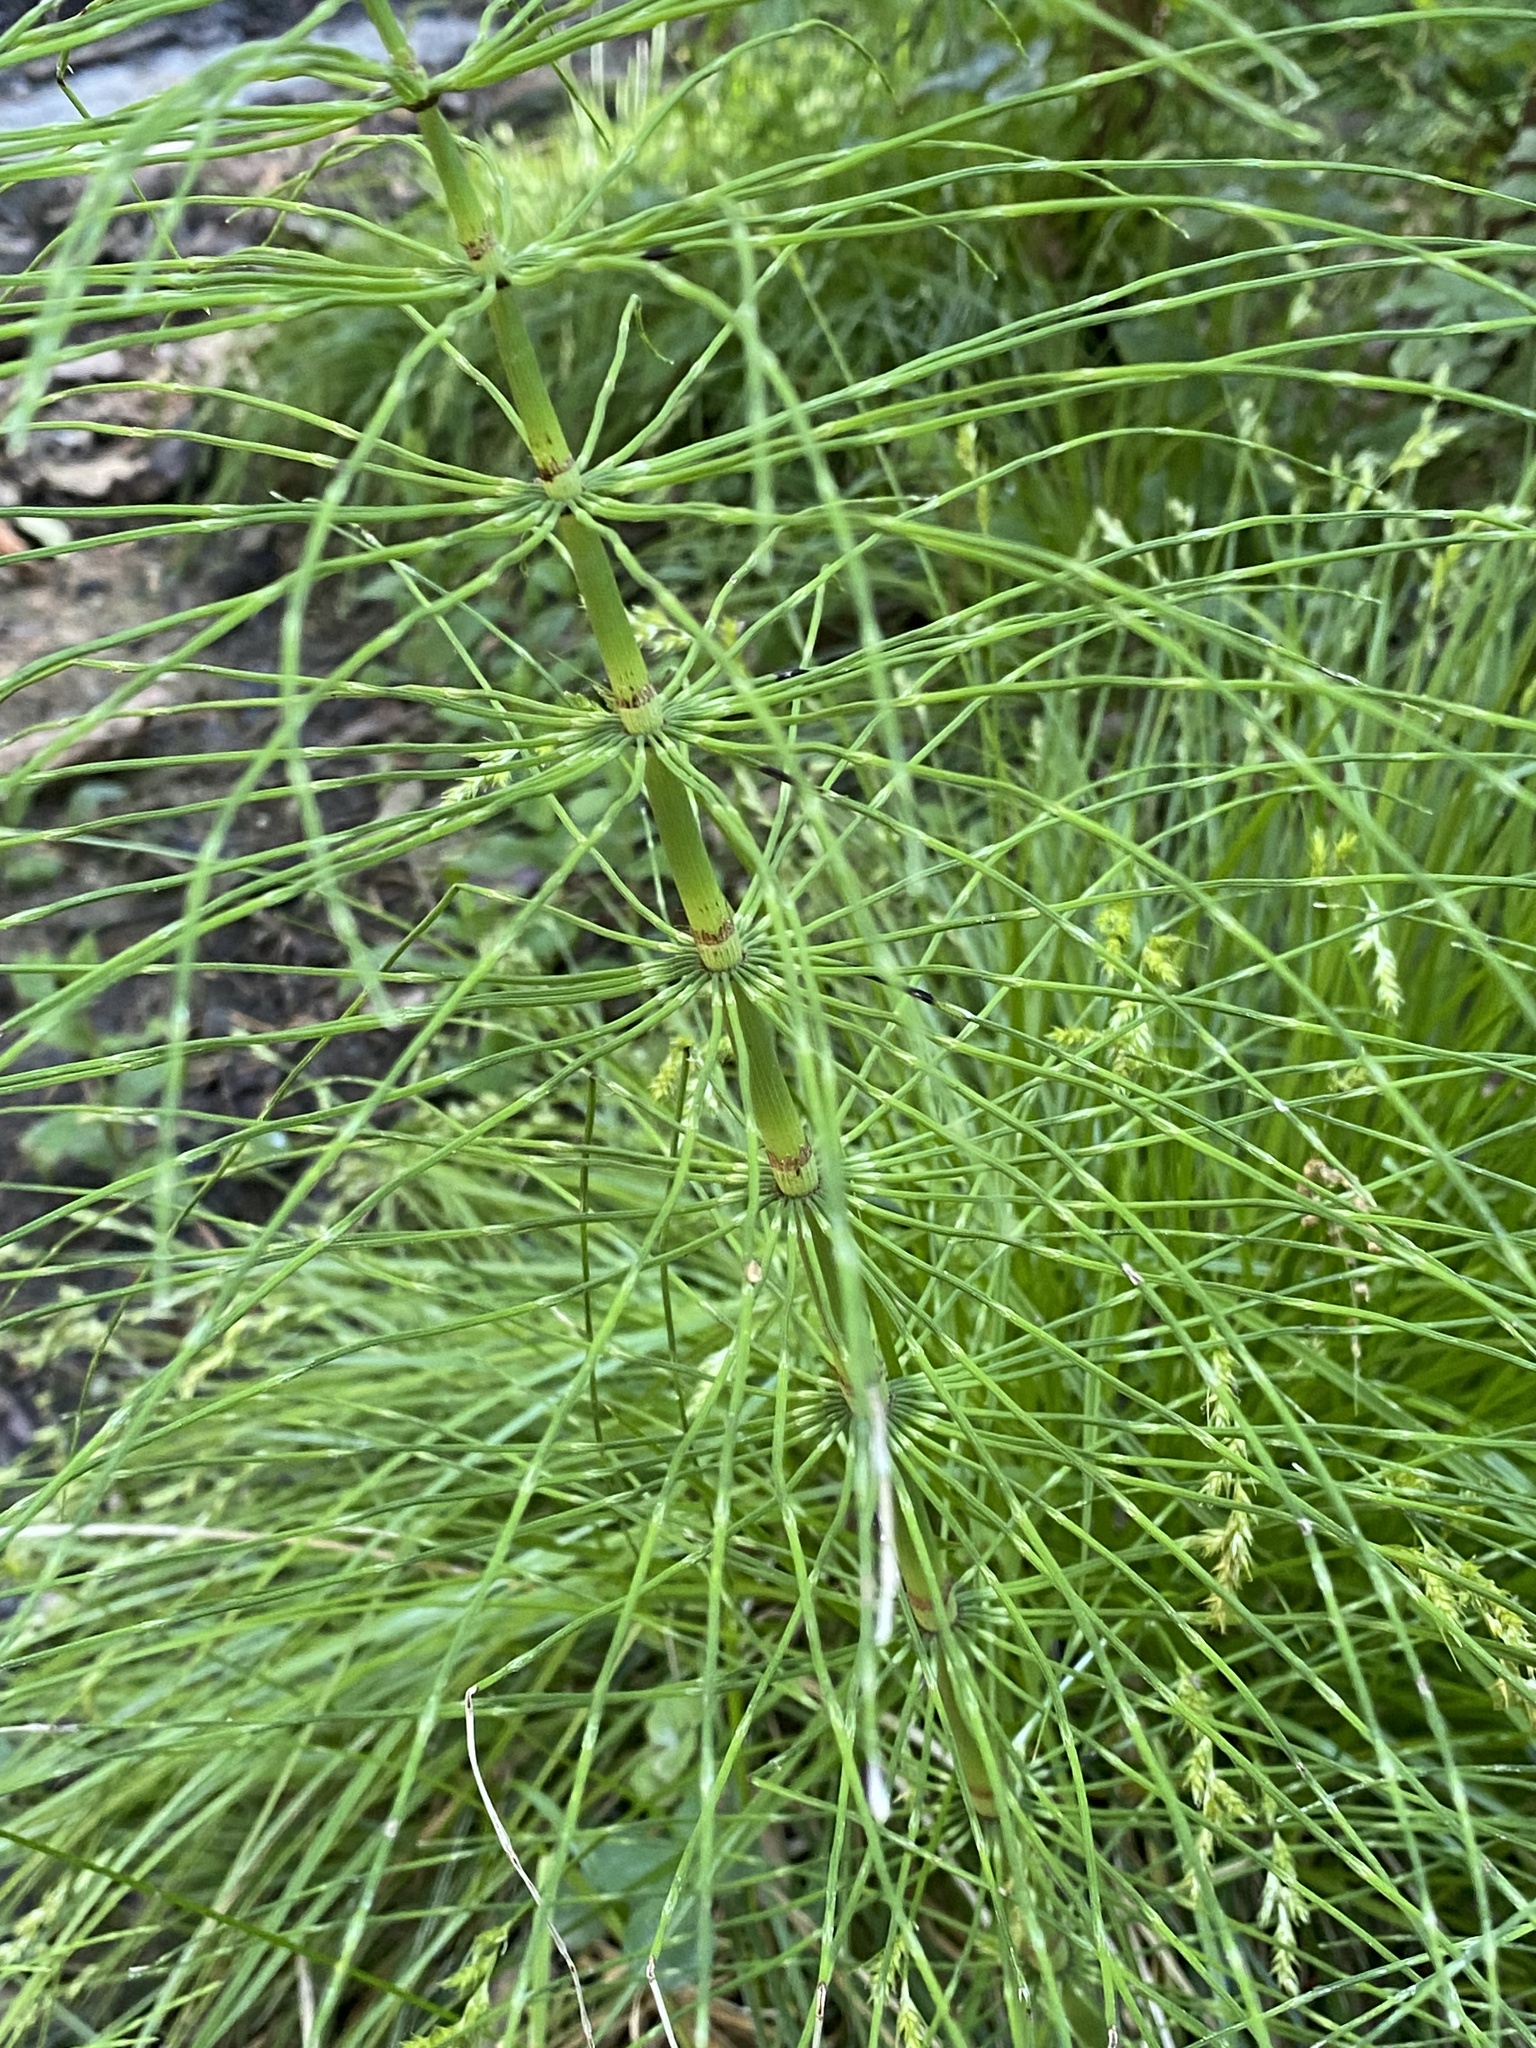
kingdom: Plantae
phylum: Tracheophyta
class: Polypodiopsida
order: Equisetales
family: Equisetaceae
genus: Equisetum
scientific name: Equisetum braunii
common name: Braun's horsetail
